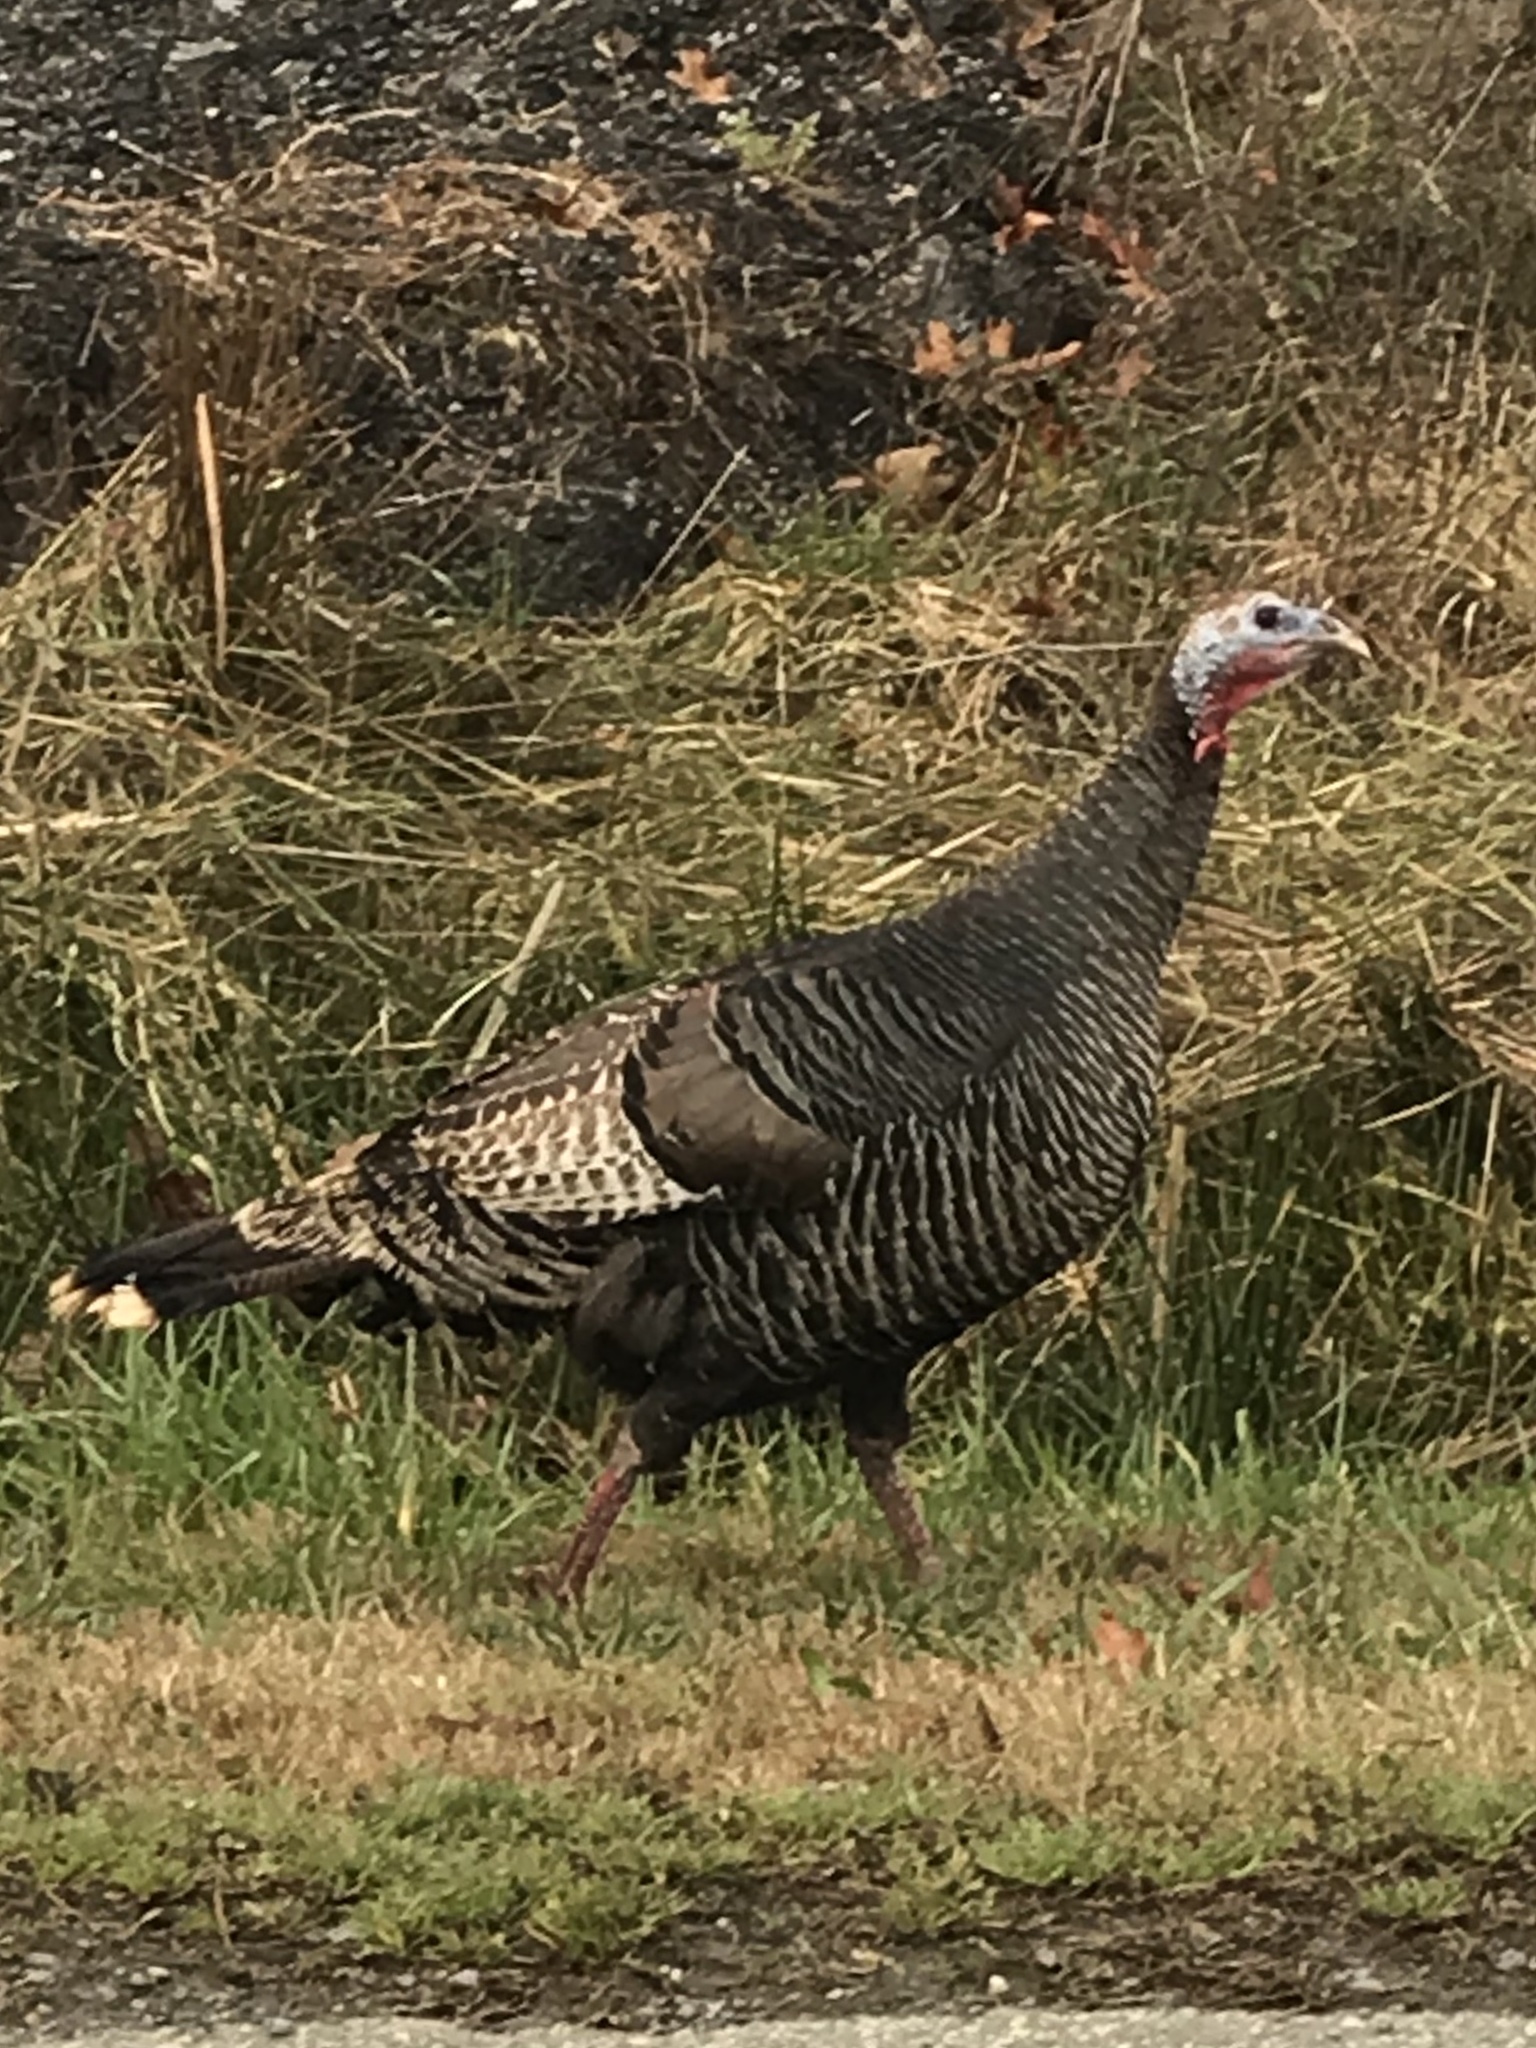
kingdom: Animalia
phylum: Chordata
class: Aves
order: Galliformes
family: Phasianidae
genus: Meleagris
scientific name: Meleagris gallopavo
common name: Wild turkey
